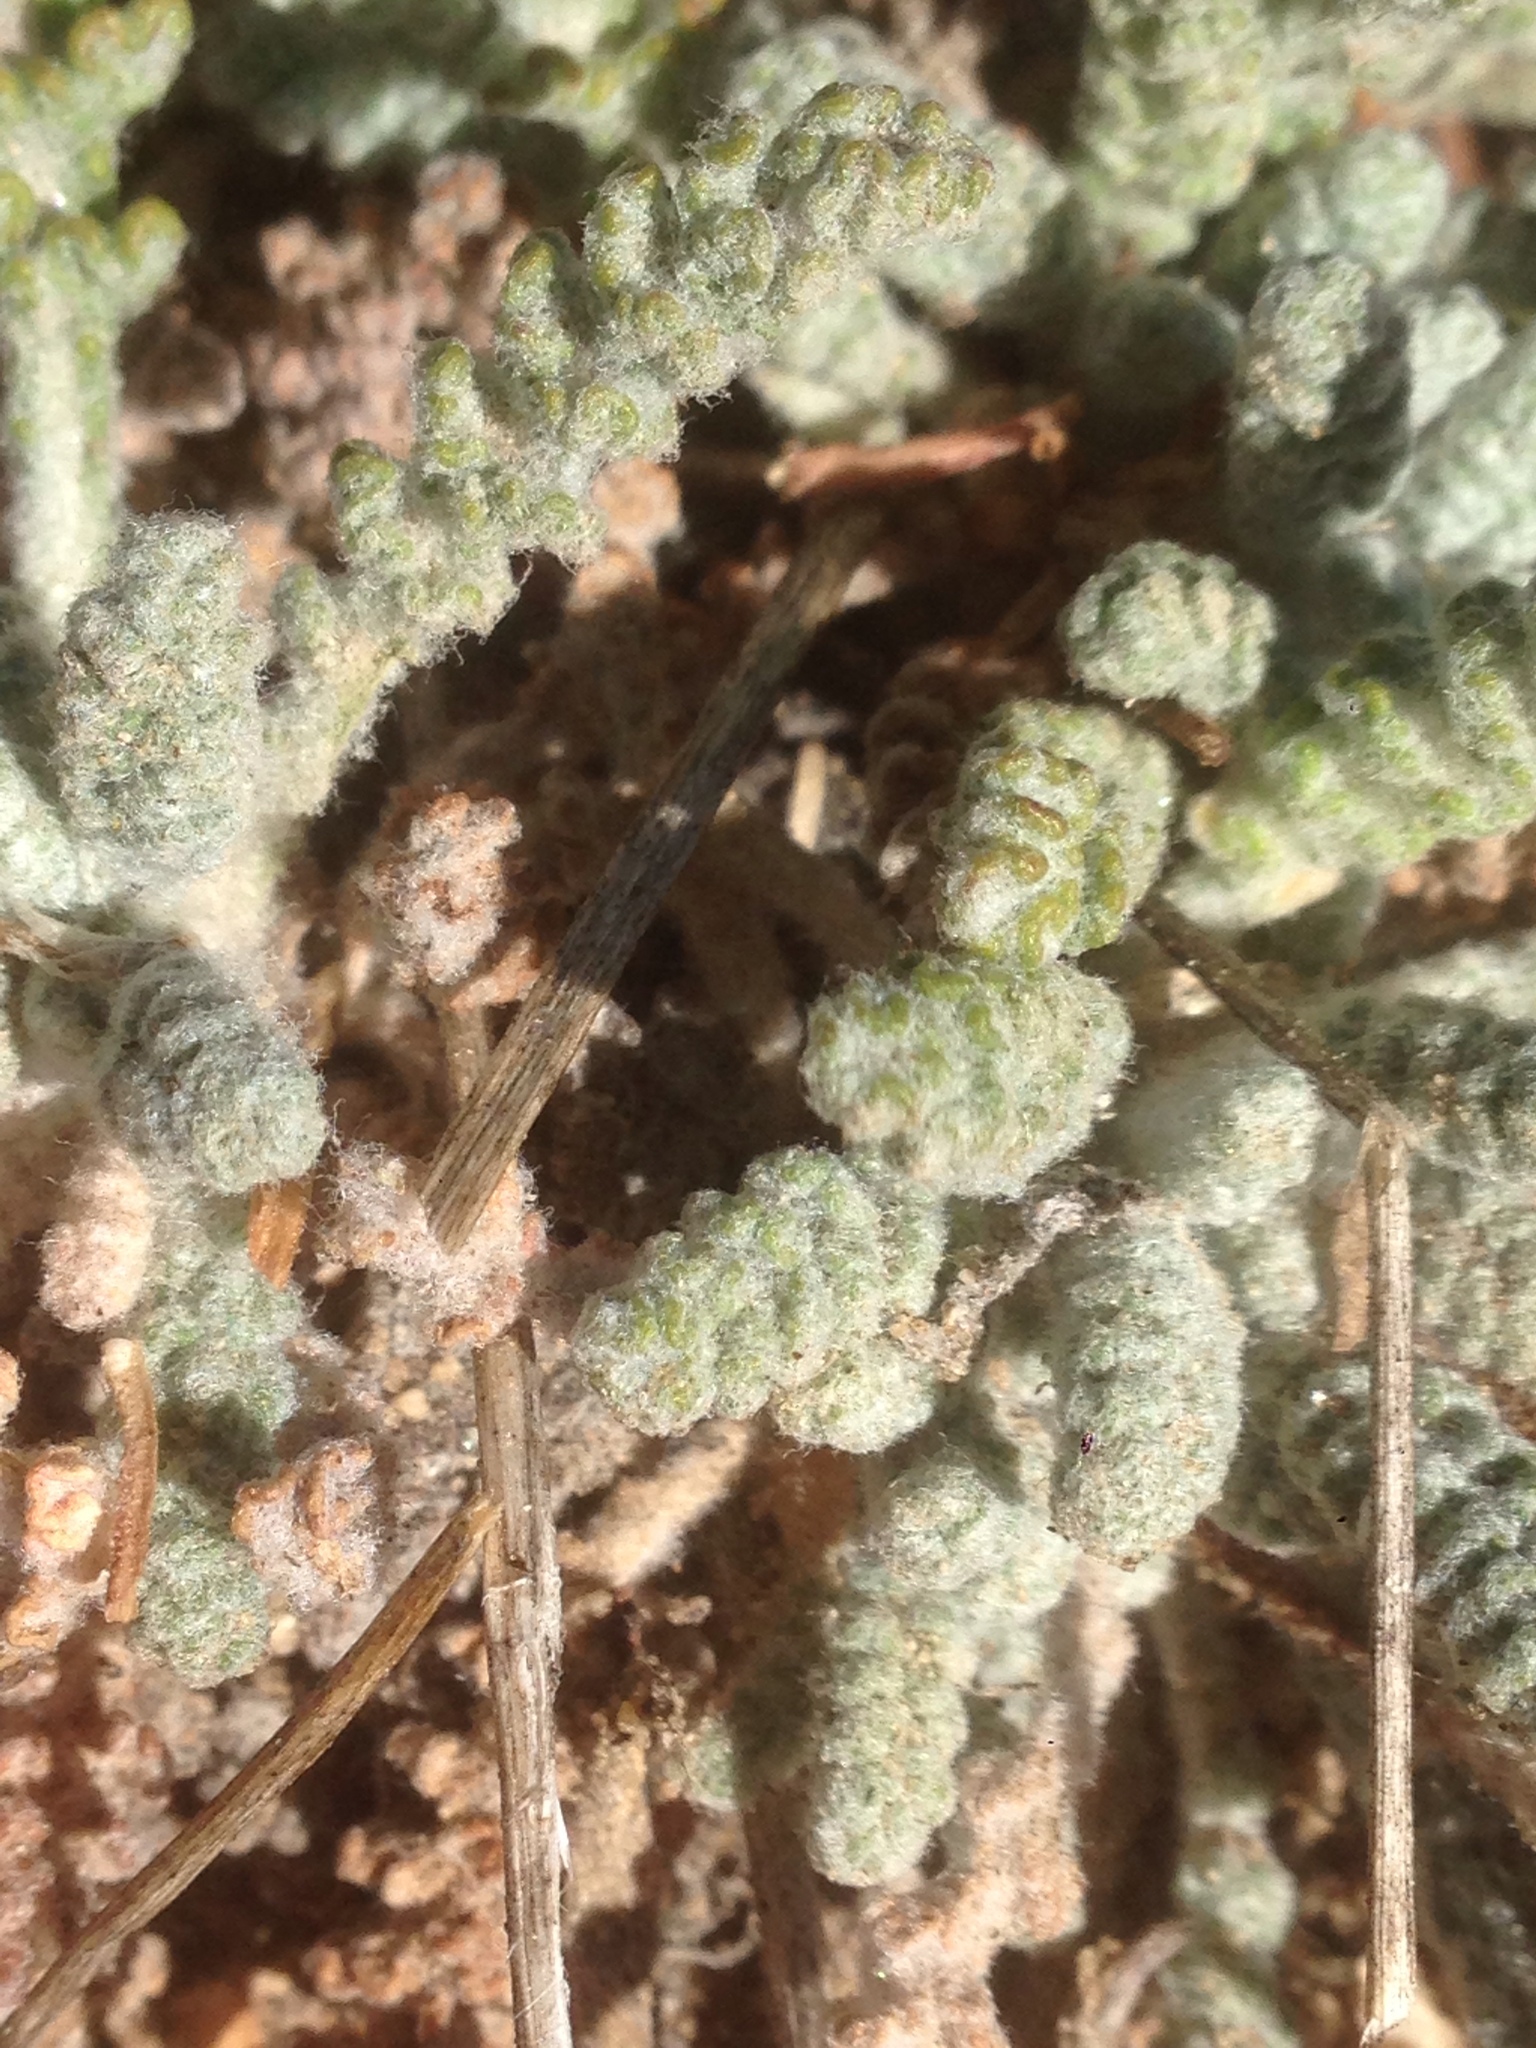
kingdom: Plantae
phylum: Tracheophyta
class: Magnoliopsida
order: Asterales
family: Asteraceae
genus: Chaenactis
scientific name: Chaenactis santolinoides
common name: Santolina pincushion
